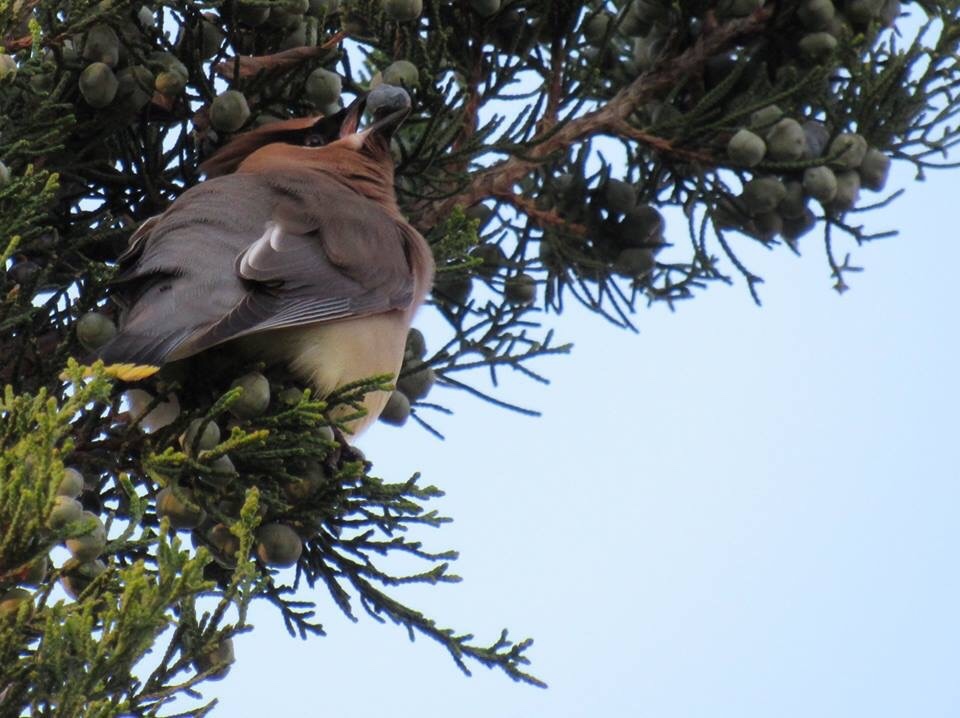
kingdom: Animalia
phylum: Chordata
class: Aves
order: Passeriformes
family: Bombycillidae
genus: Bombycilla
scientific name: Bombycilla cedrorum
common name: Cedar waxwing
